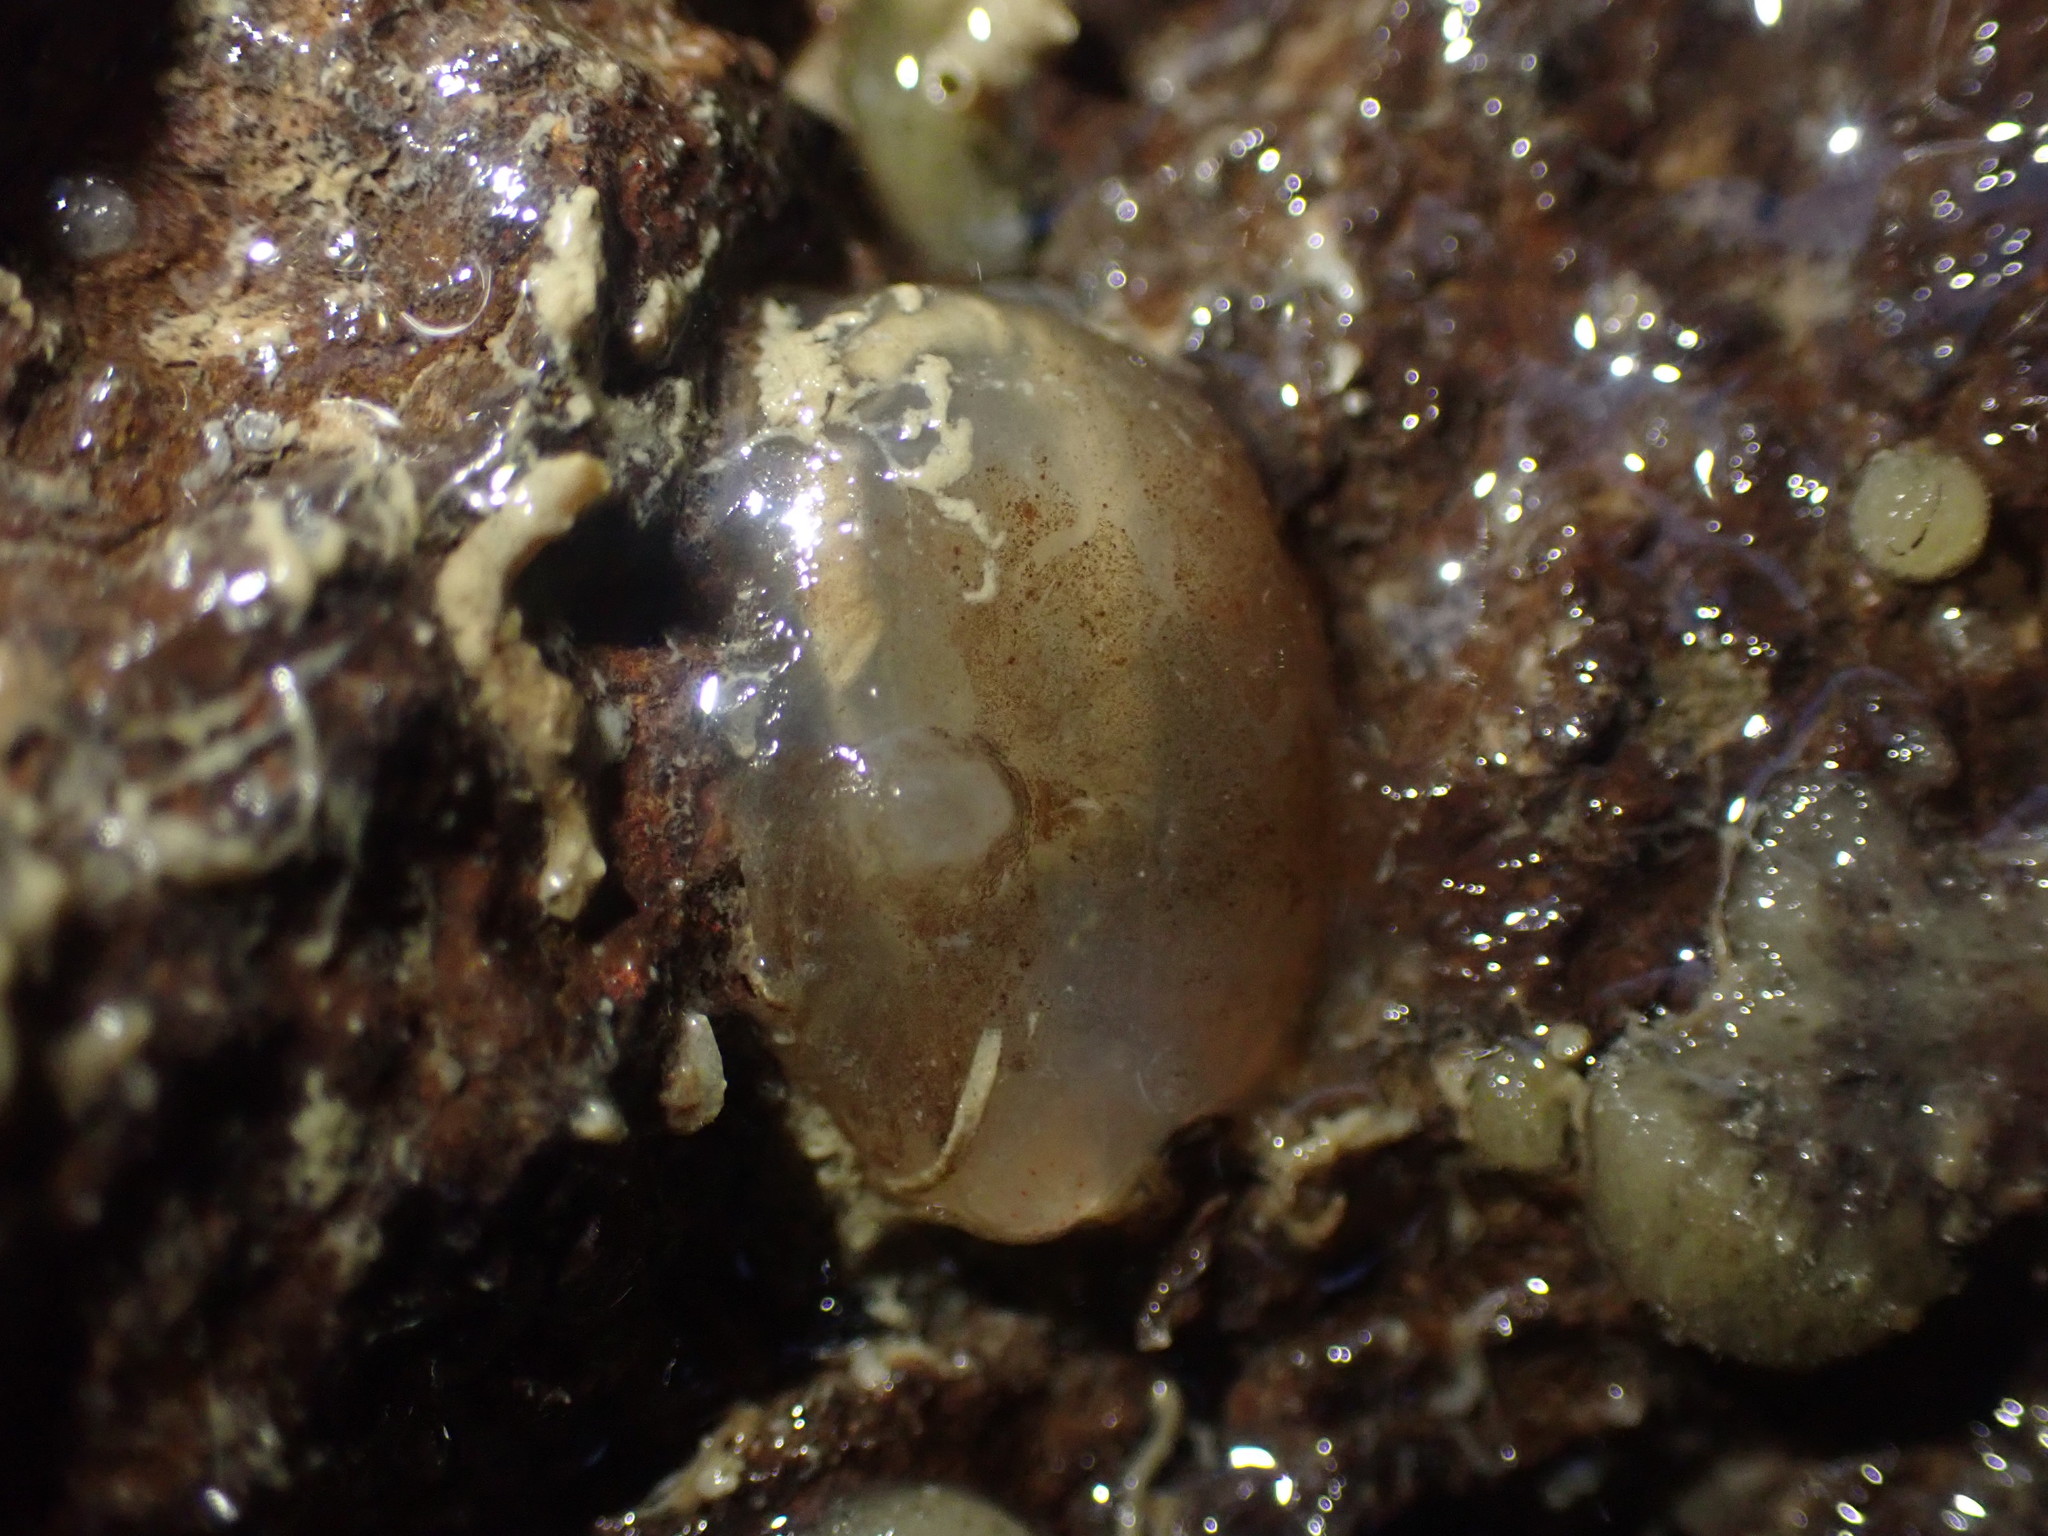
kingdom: Animalia
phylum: Chordata
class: Ascidiacea
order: Phlebobranchia
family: Agneziidae
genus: Agnezia
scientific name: Agnezia glaciata
